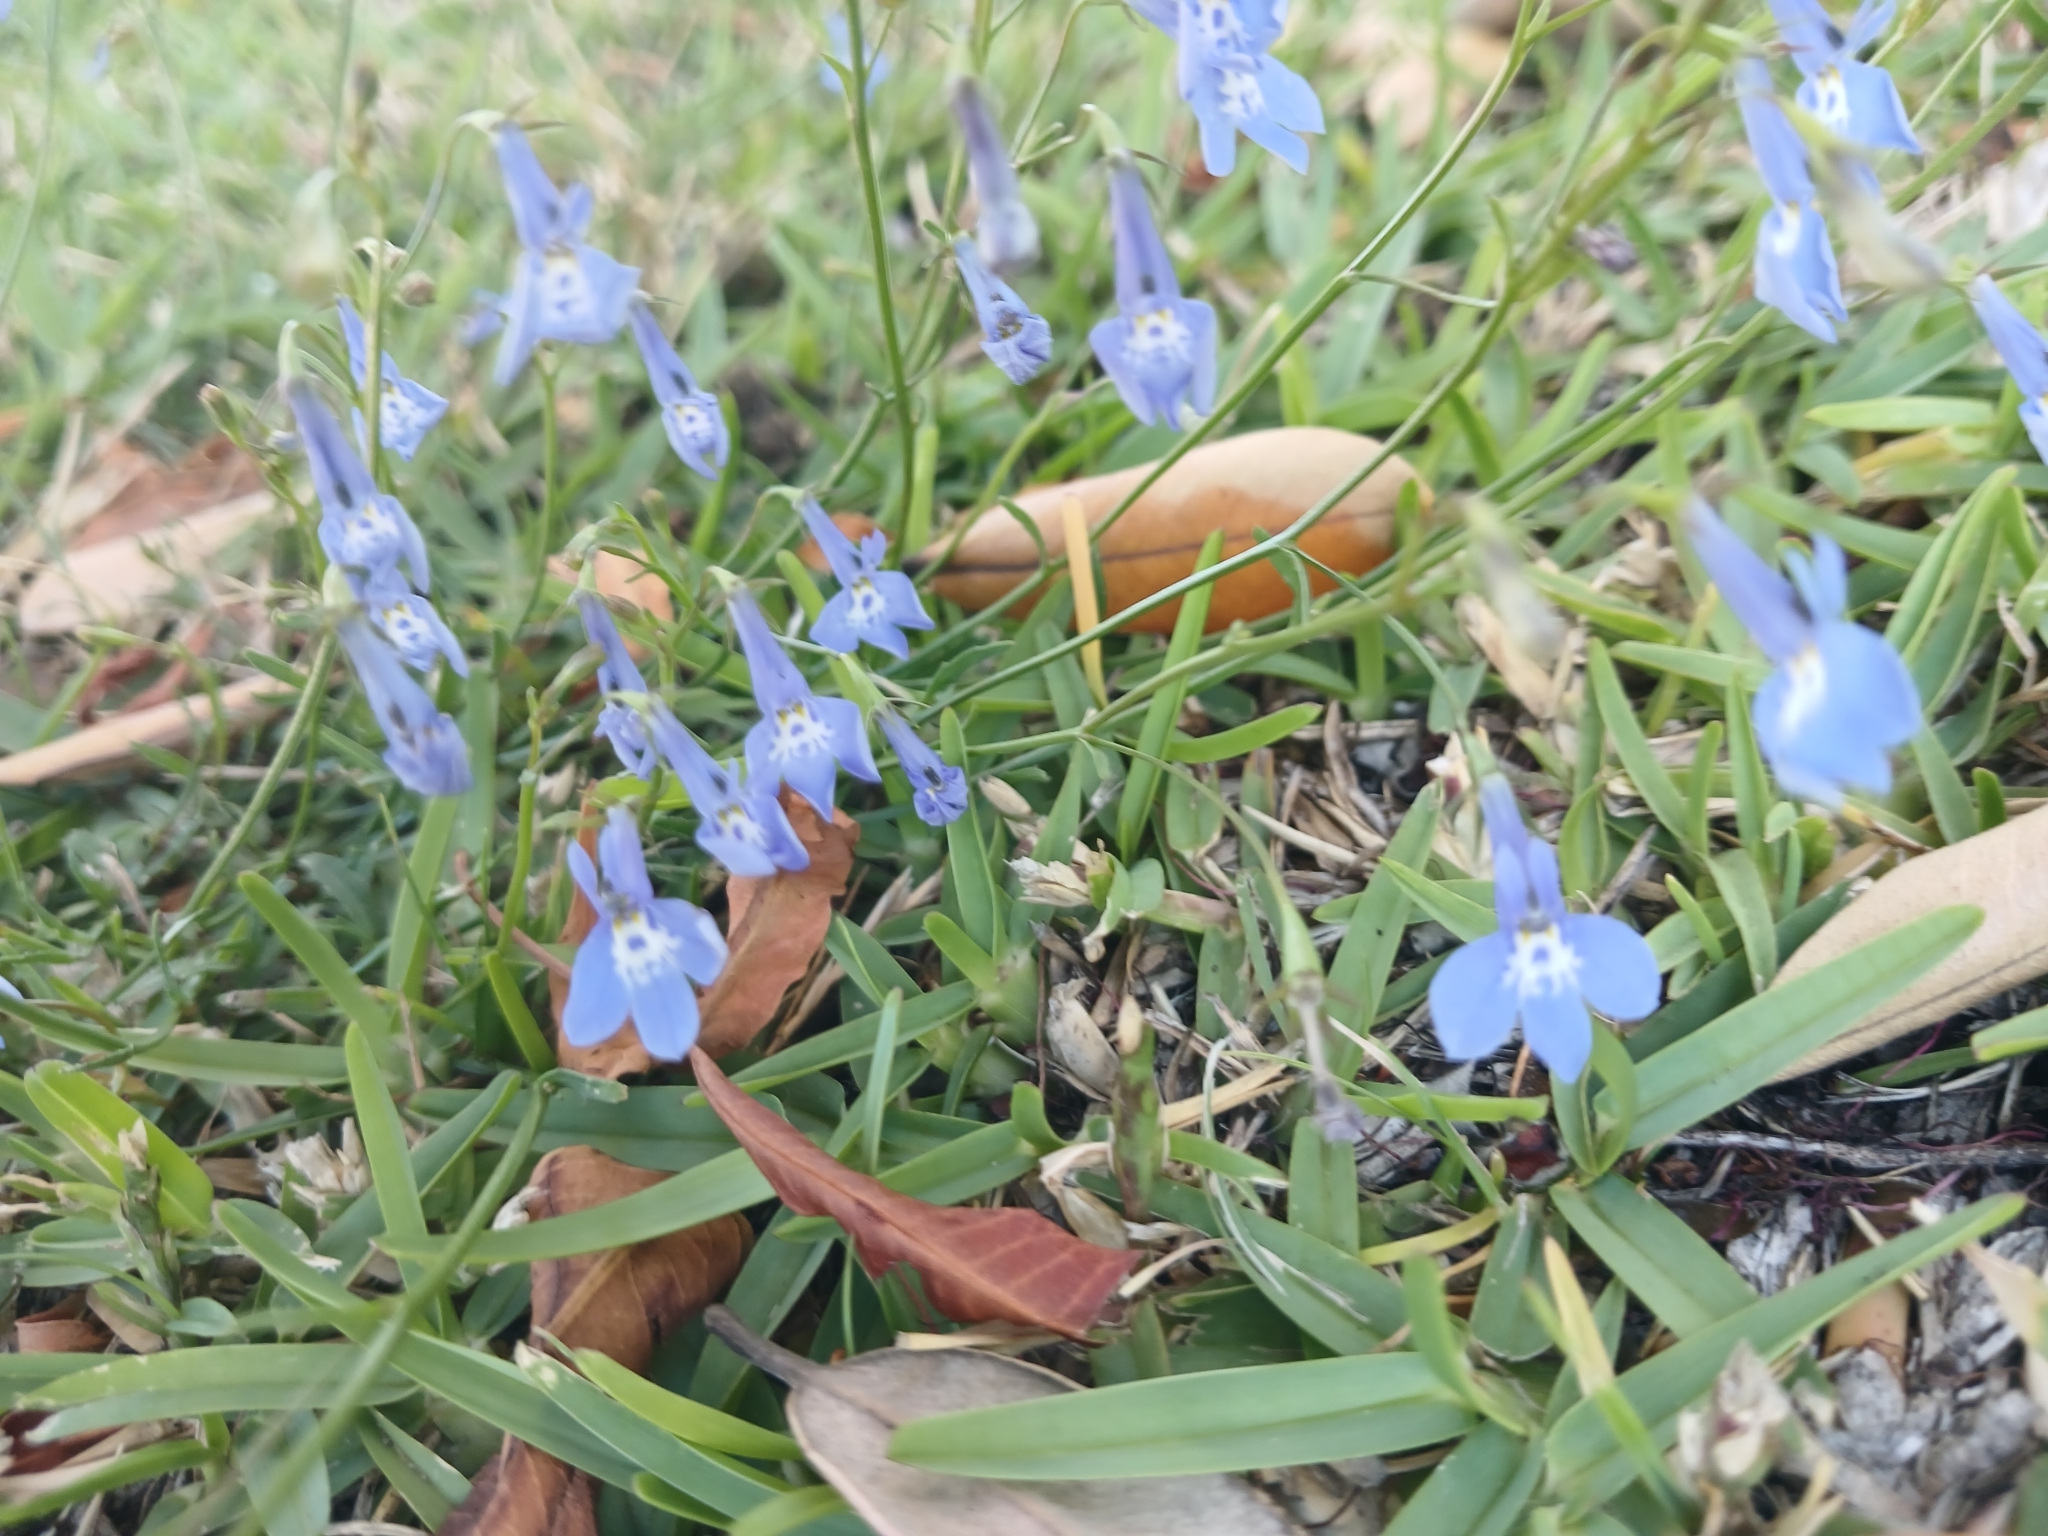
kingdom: Plantae
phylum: Tracheophyta
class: Magnoliopsida
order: Asterales
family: Campanulaceae
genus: Lobelia
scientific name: Lobelia erinus
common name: Edging lobelia
